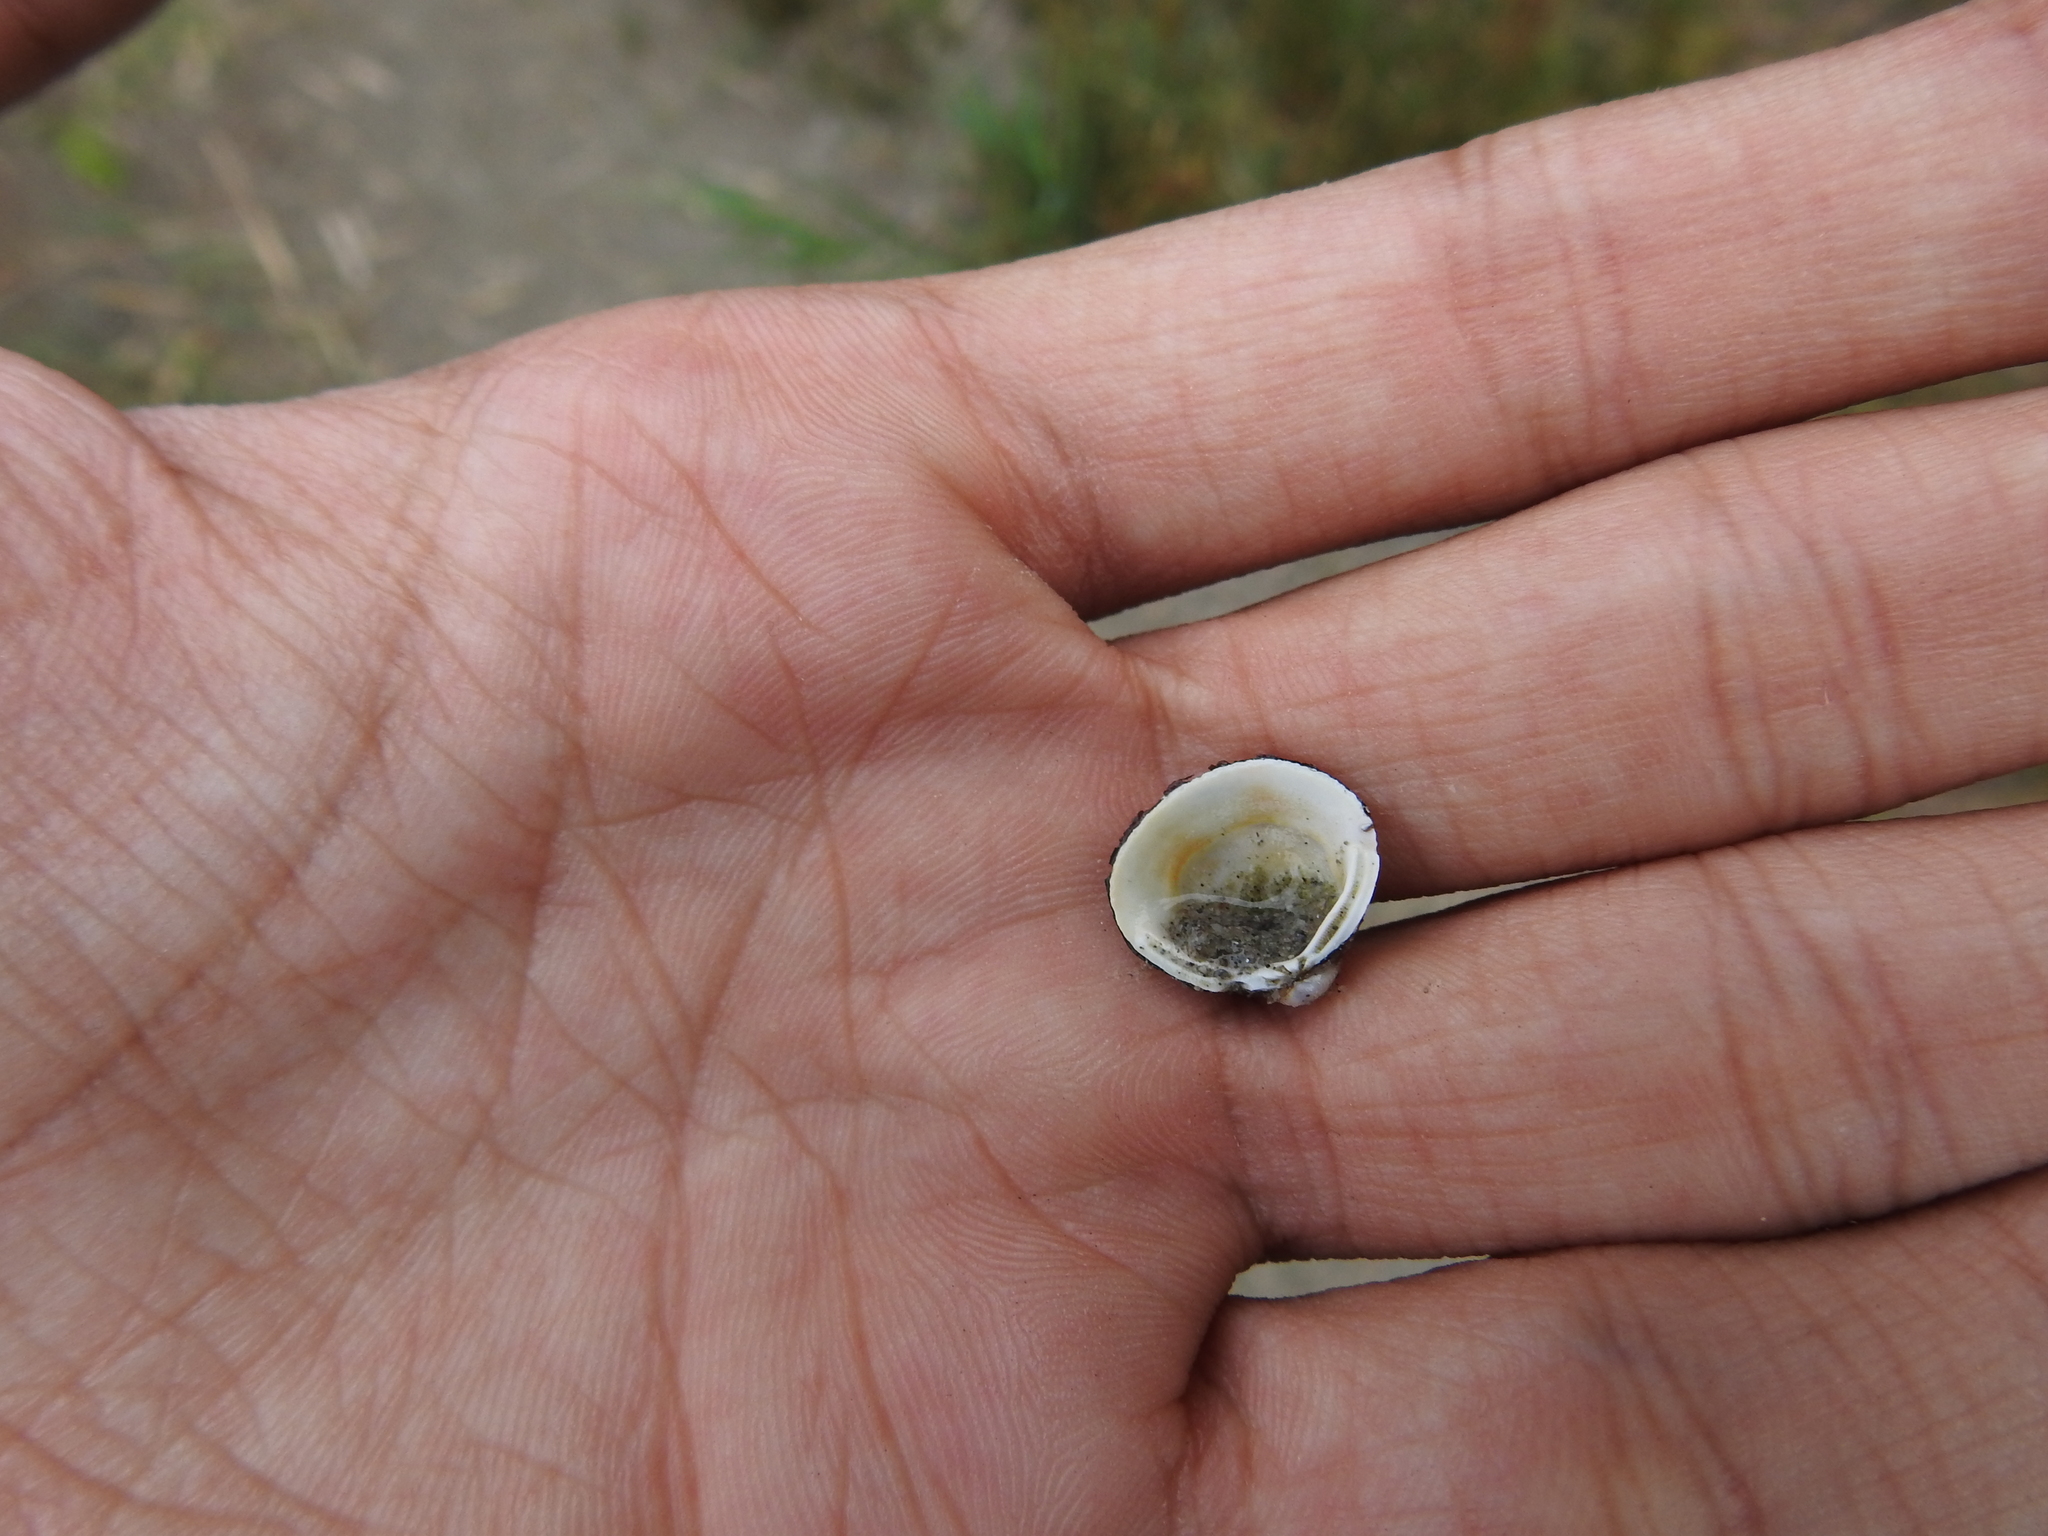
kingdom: Animalia
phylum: Mollusca
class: Bivalvia
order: Venerida
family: Cyrenidae
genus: Corbicula
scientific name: Corbicula fluminea
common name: Asian clam
